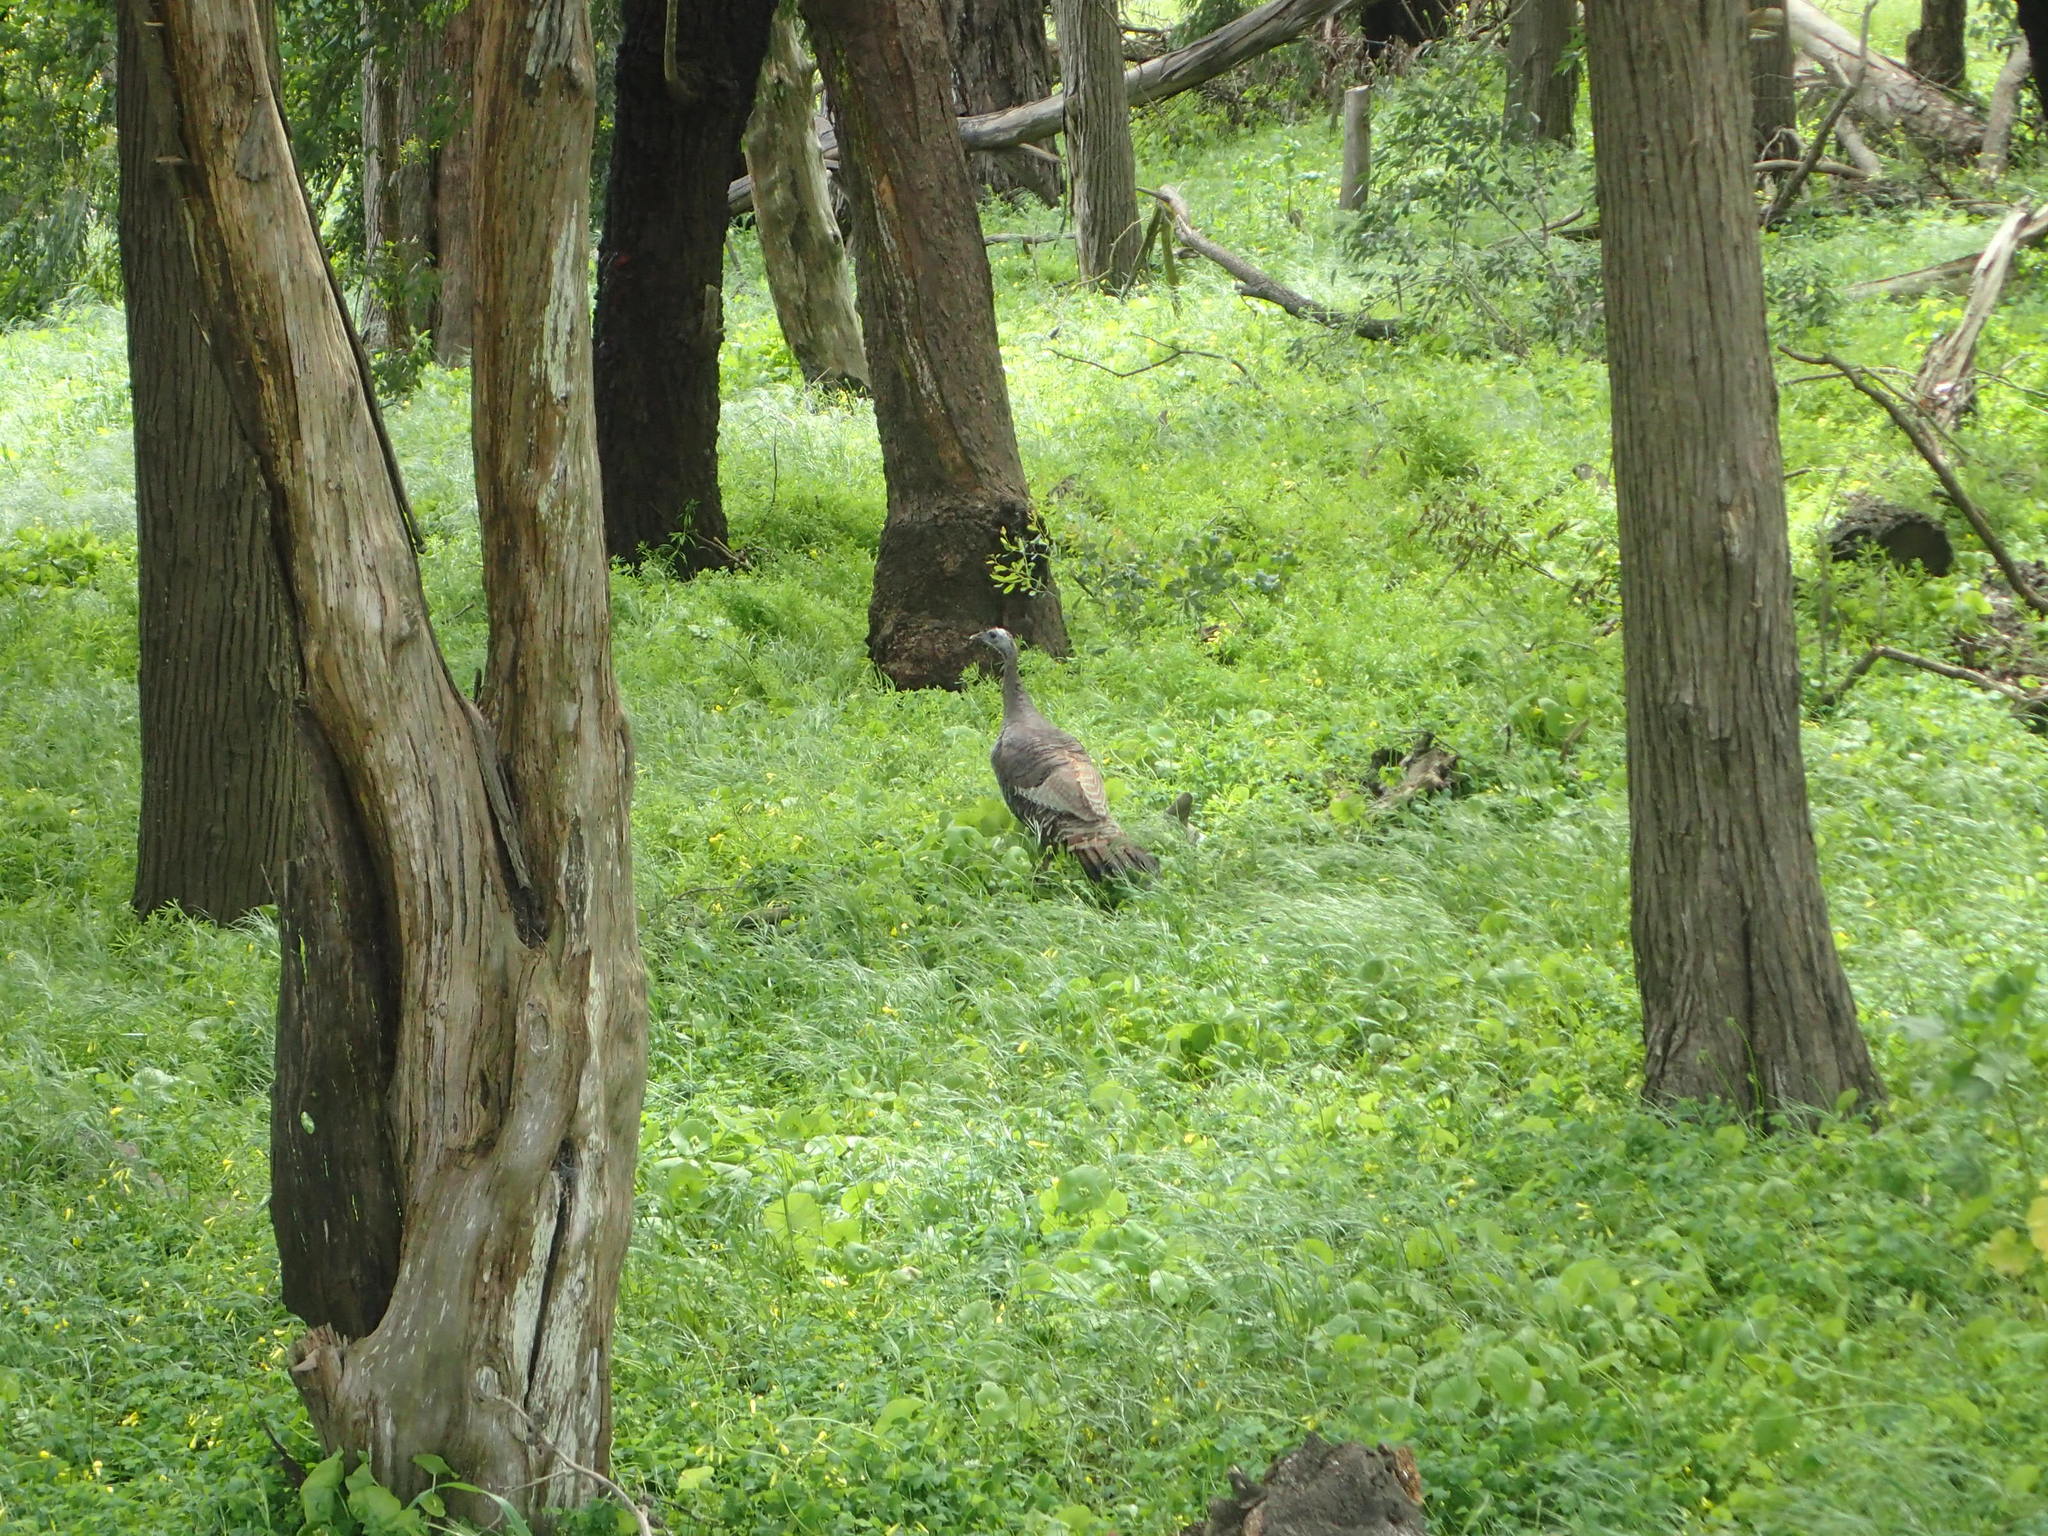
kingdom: Animalia
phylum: Chordata
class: Aves
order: Galliformes
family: Phasianidae
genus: Meleagris
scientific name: Meleagris gallopavo
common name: Wild turkey
